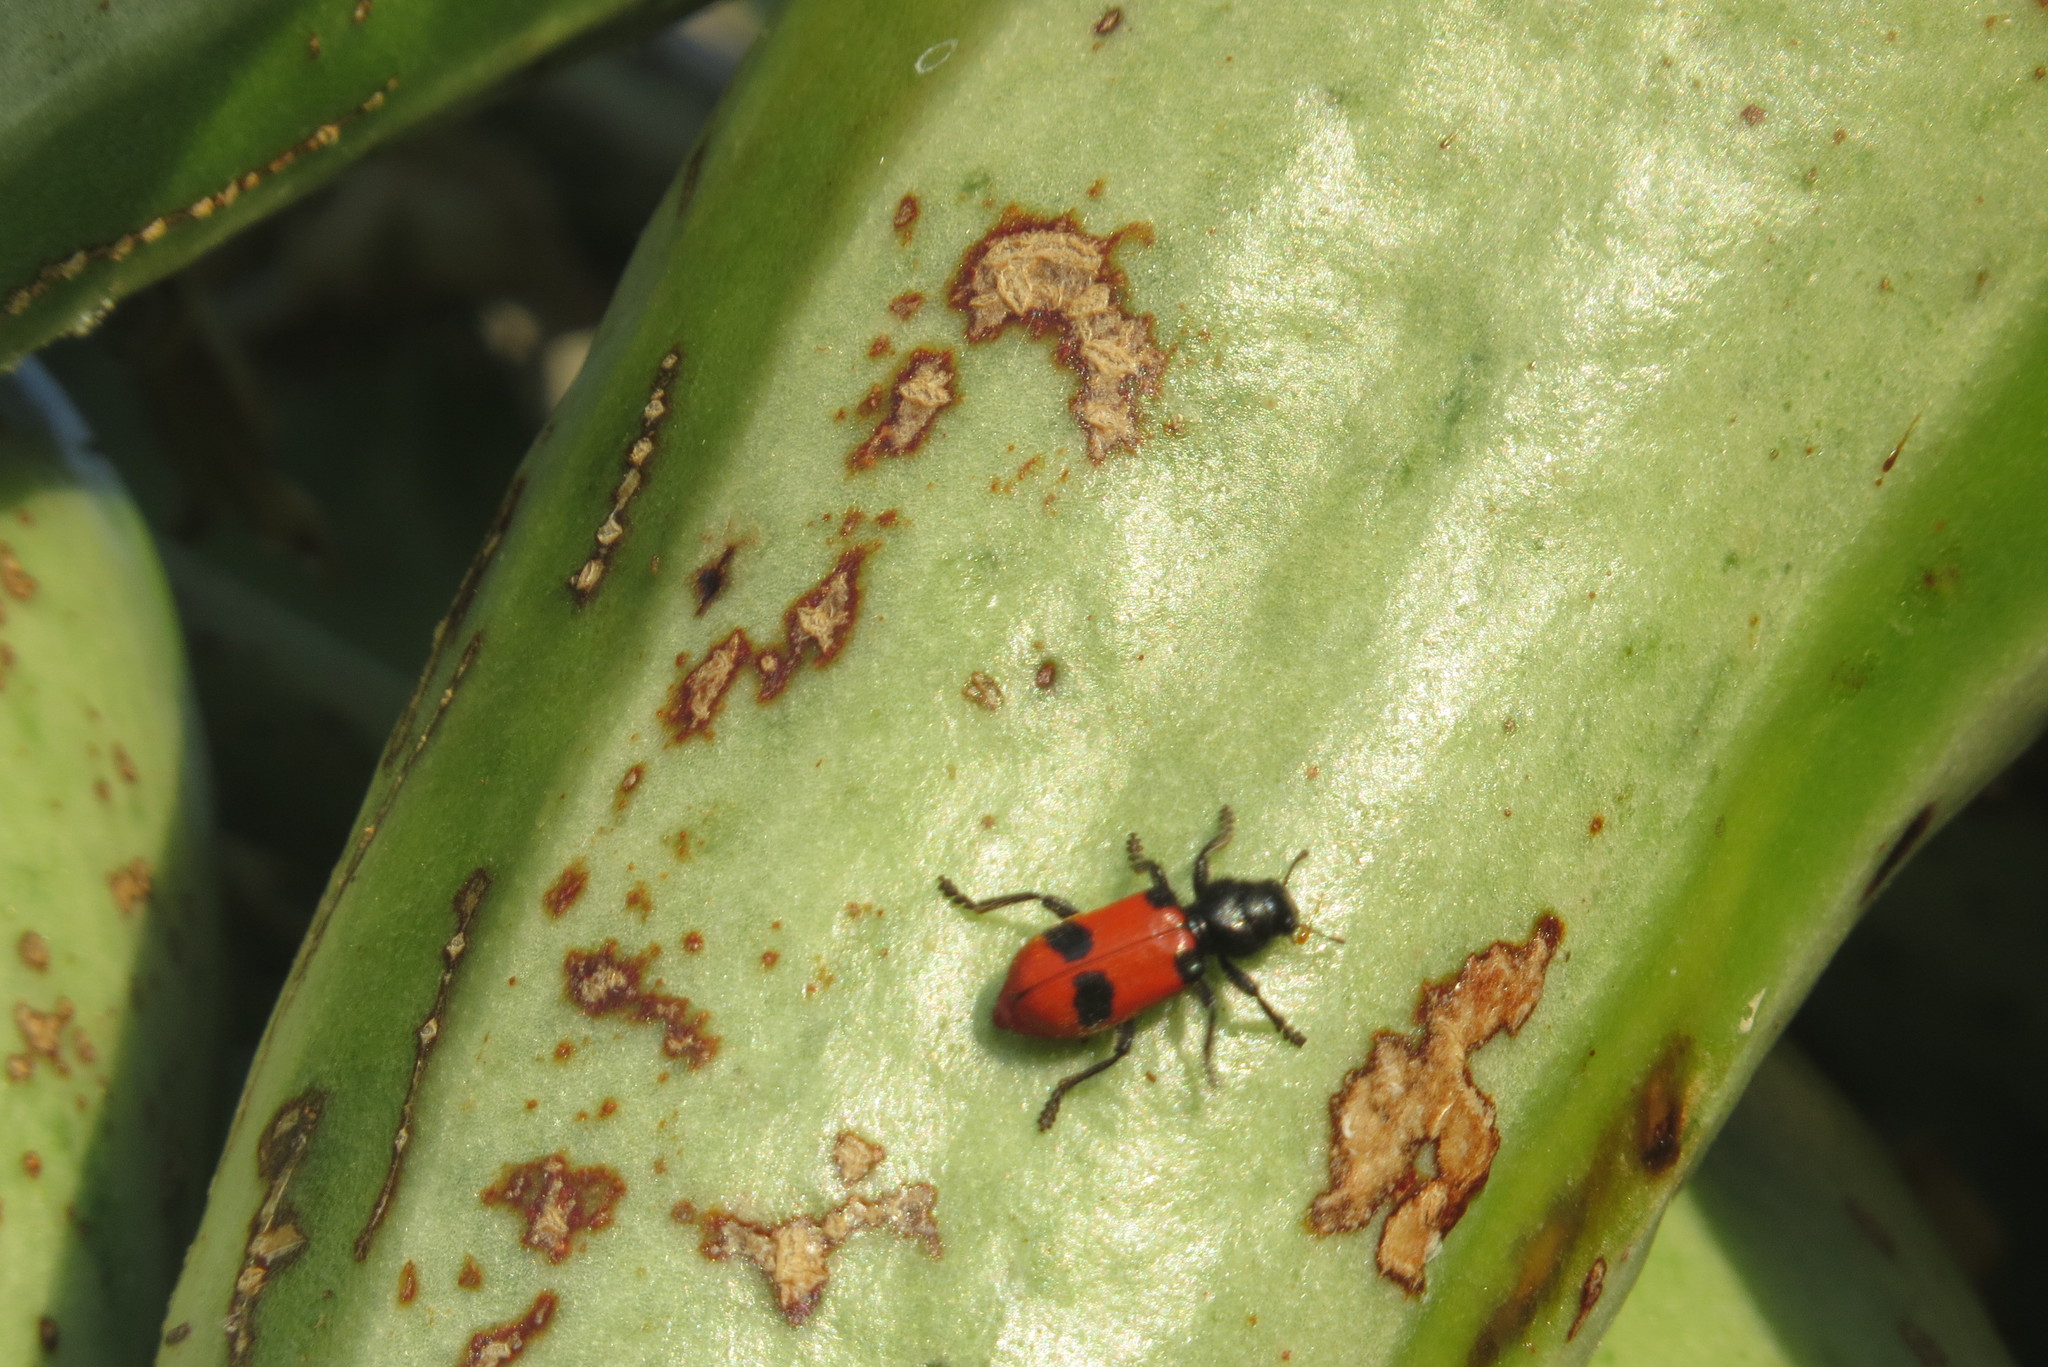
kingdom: Animalia
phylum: Arthropoda
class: Insecta
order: Coleoptera
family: Cleridae
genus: Enoclerus
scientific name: Enoclerus
